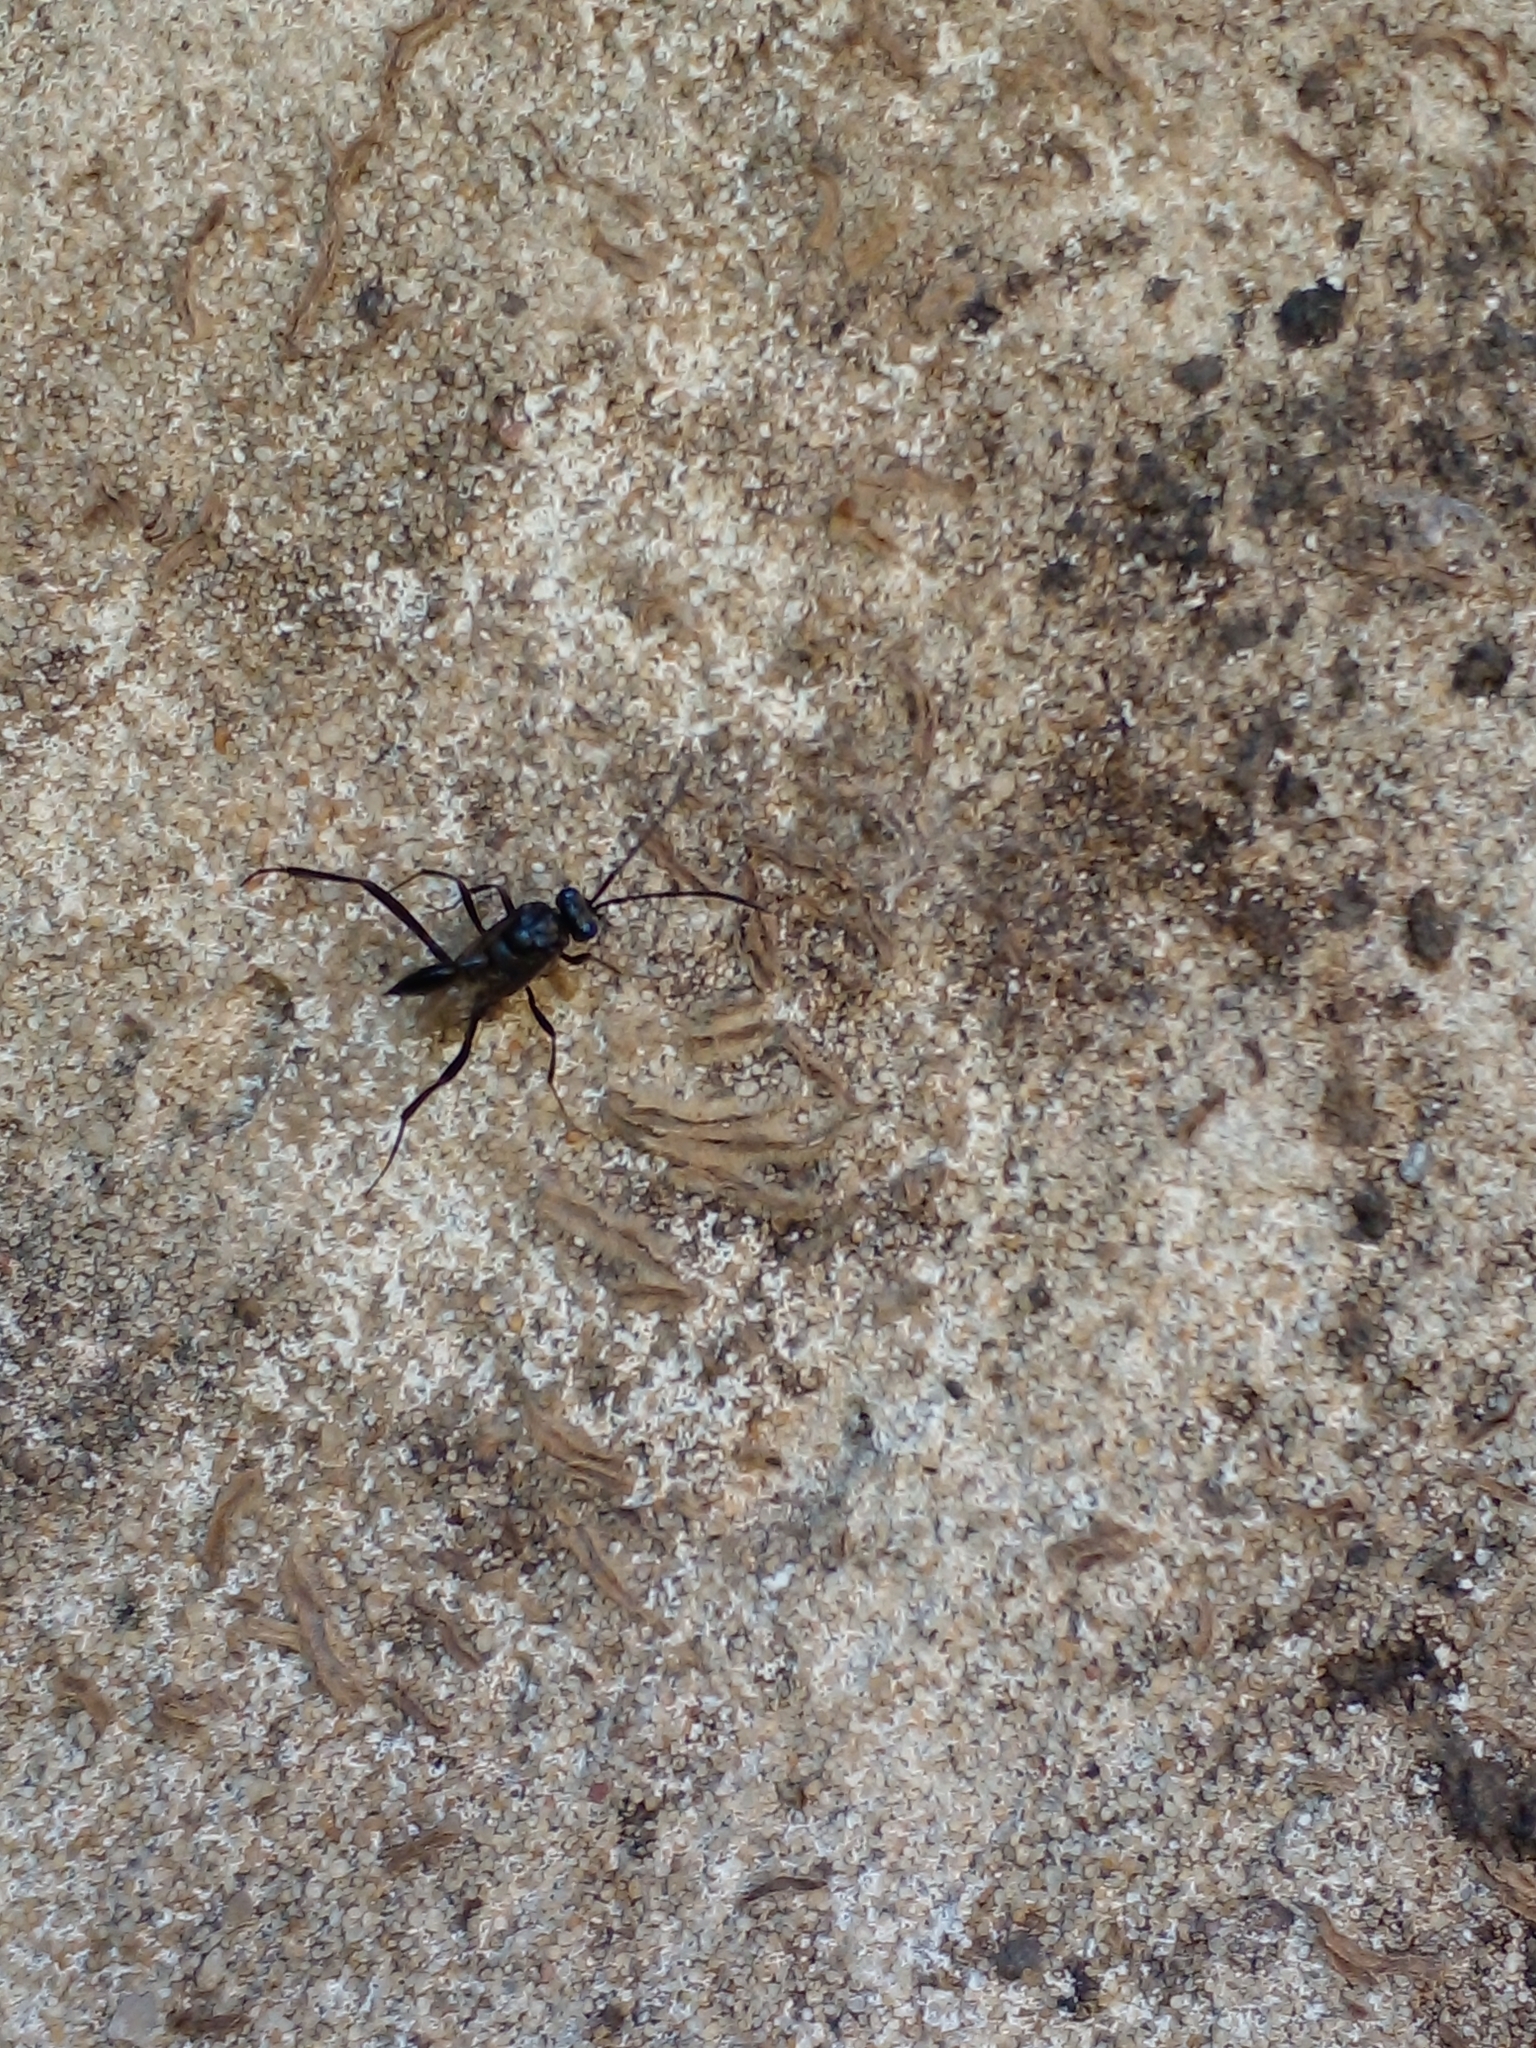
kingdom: Animalia
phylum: Arthropoda
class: Insecta
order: Hymenoptera
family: Evaniidae
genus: Evania
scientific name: Evania appendigaster
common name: Ensign wasp
